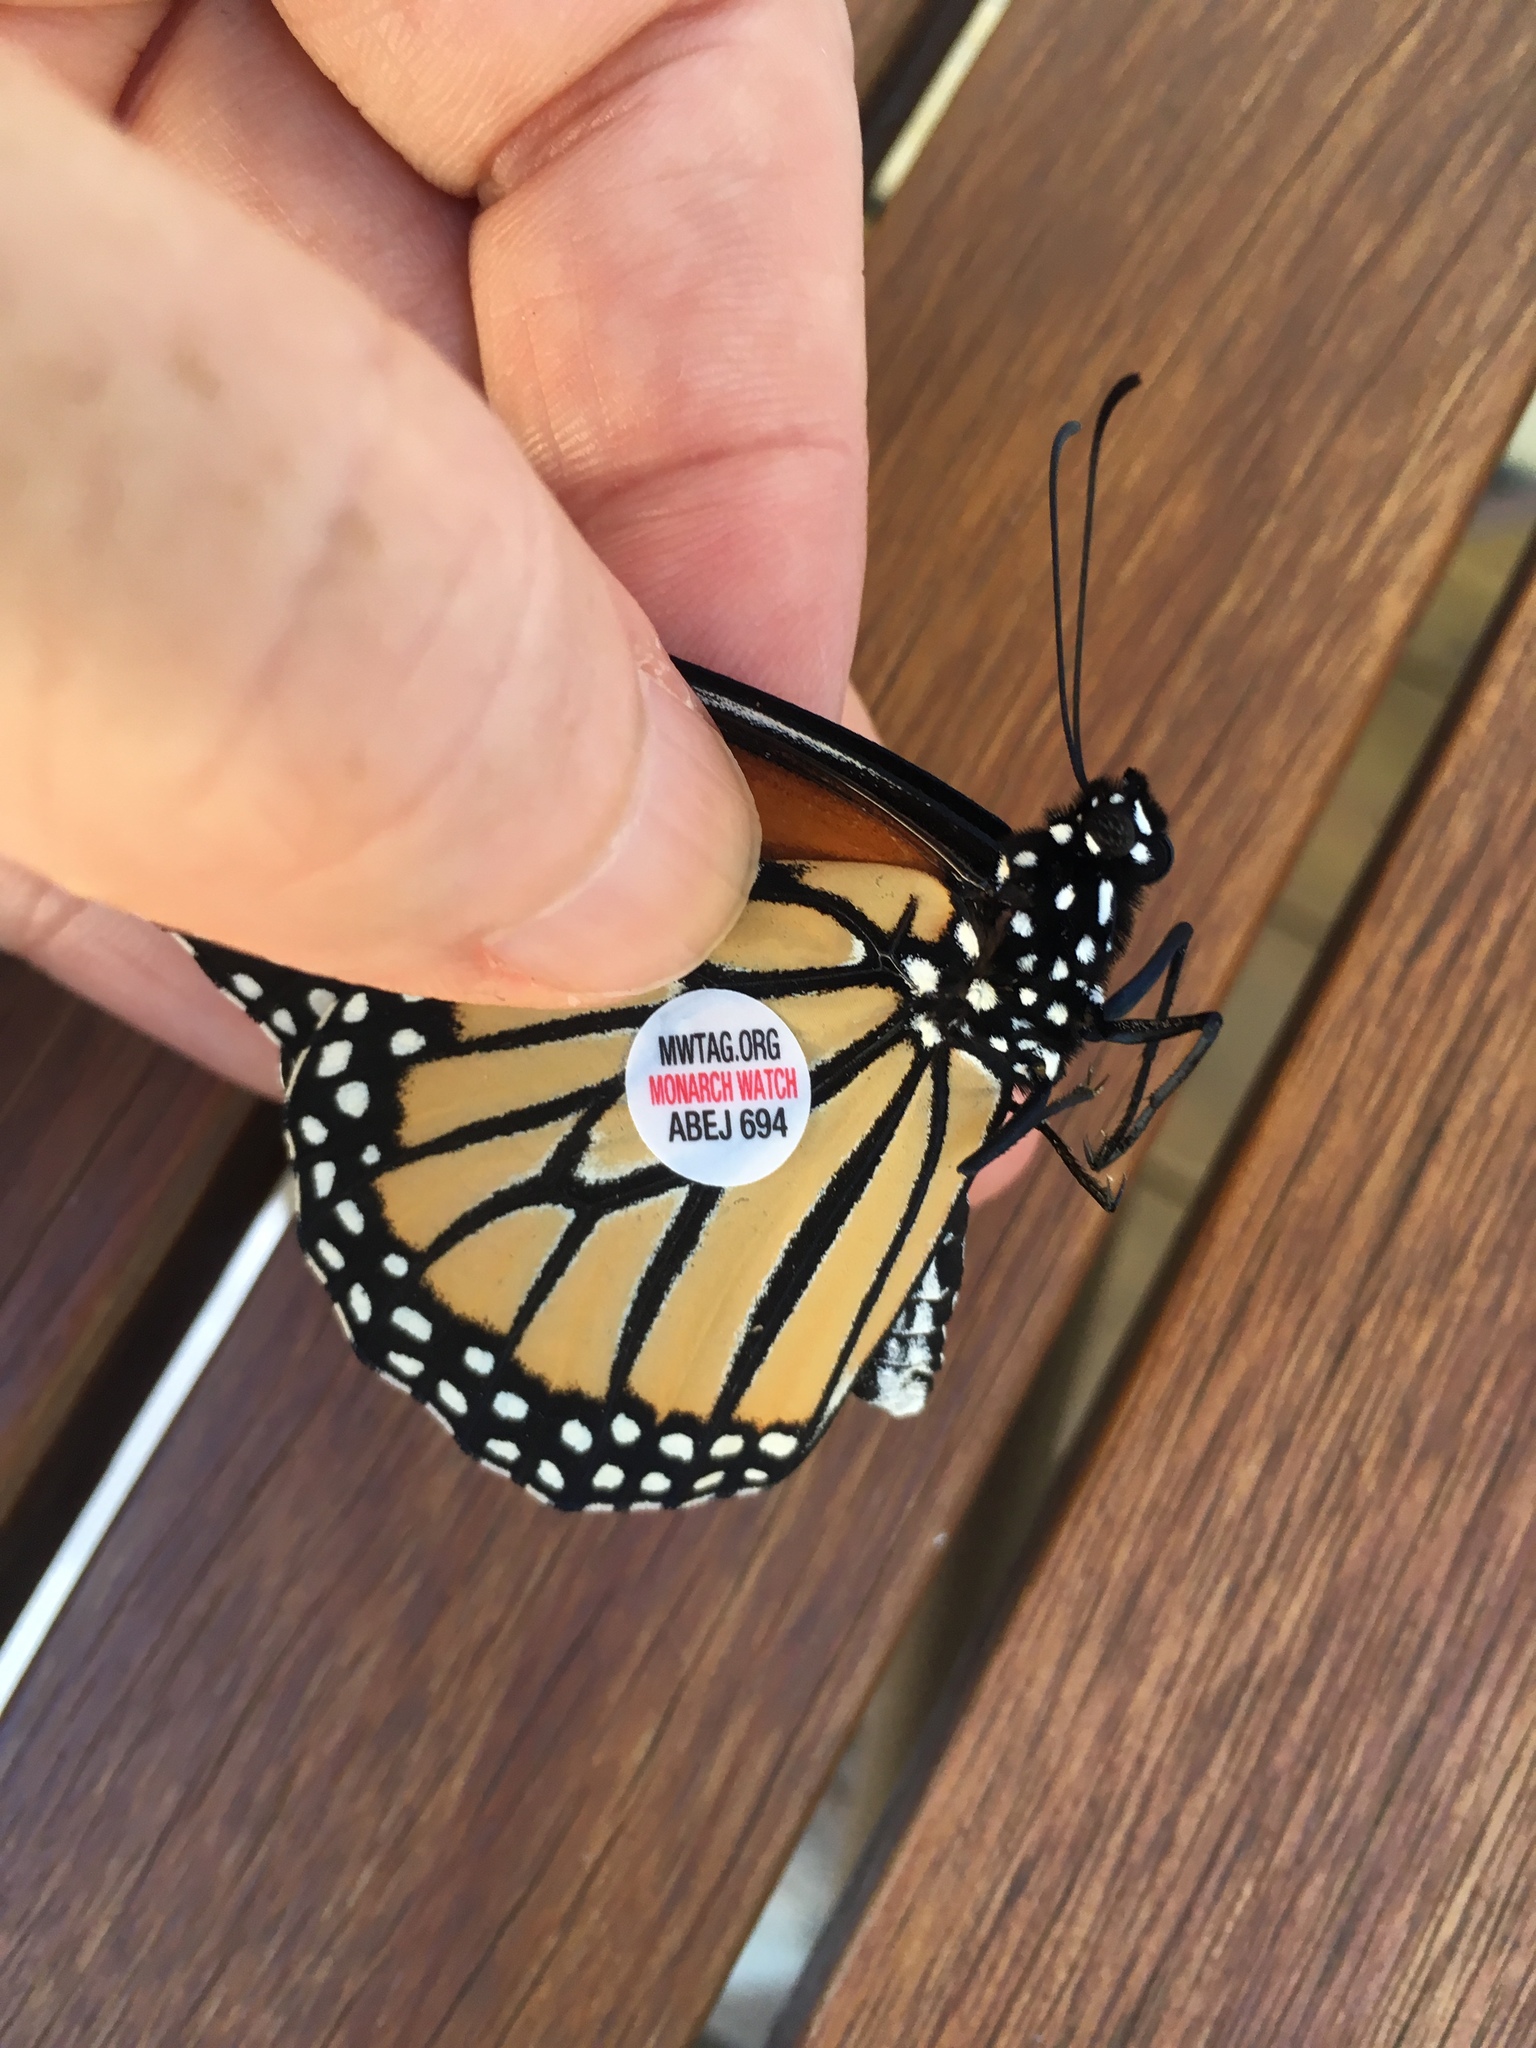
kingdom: Animalia
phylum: Arthropoda
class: Insecta
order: Lepidoptera
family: Nymphalidae
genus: Danaus
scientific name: Danaus plexippus
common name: Monarch
